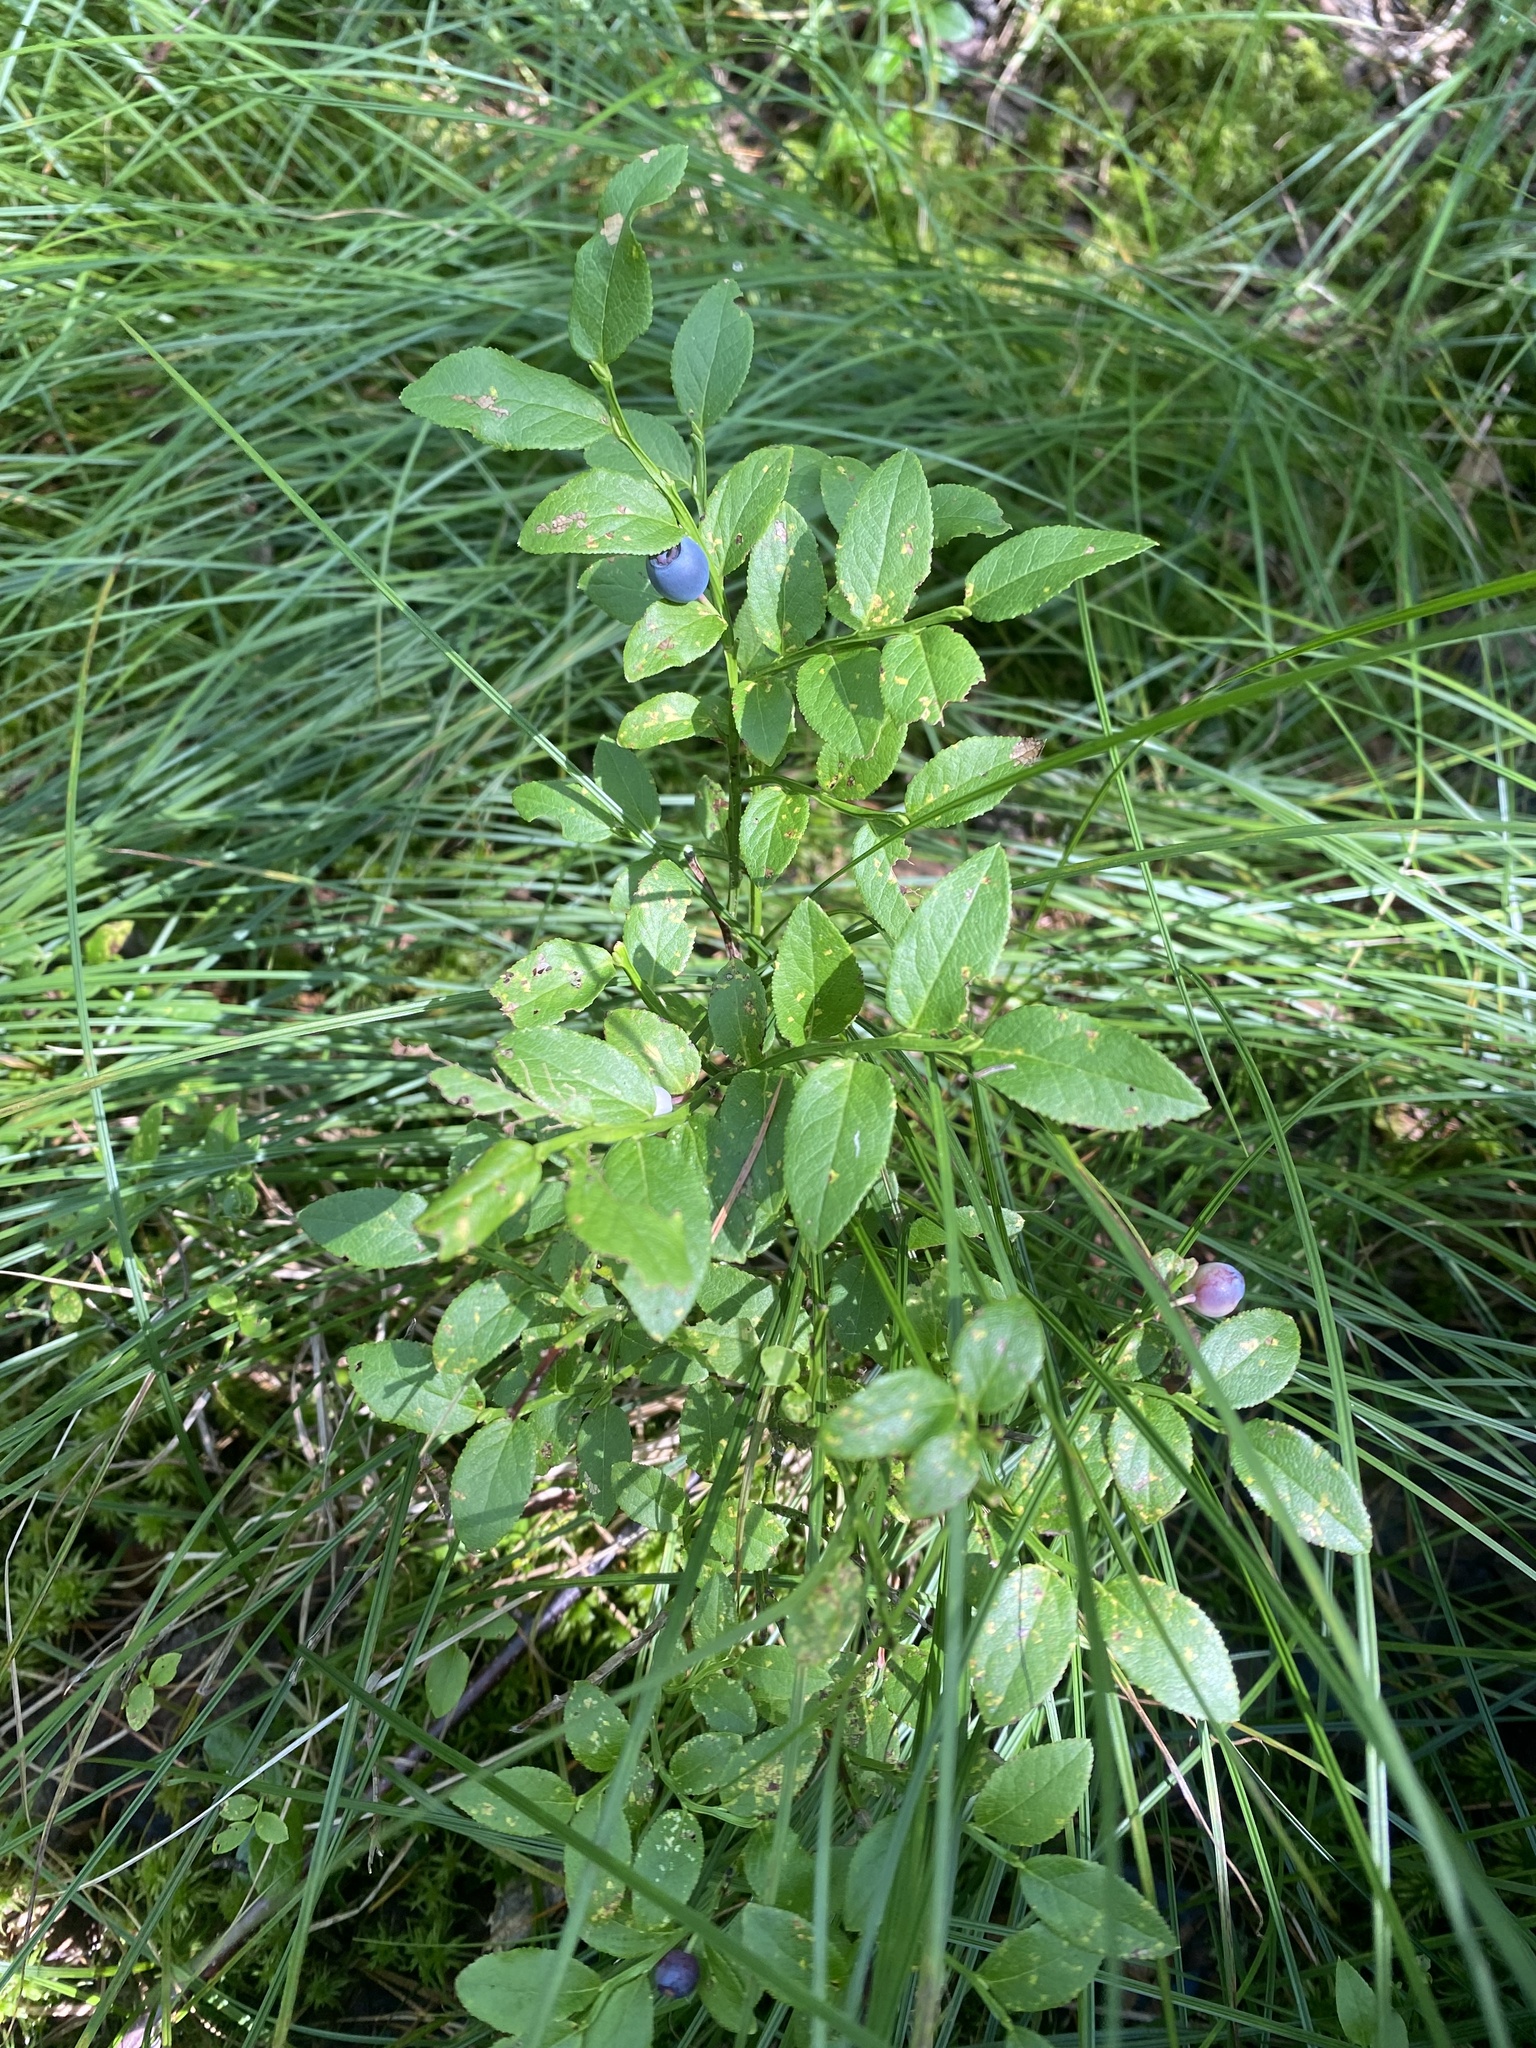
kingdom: Plantae
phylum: Tracheophyta
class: Magnoliopsida
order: Ericales
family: Ericaceae
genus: Vaccinium
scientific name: Vaccinium myrtillus
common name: Bilberry
